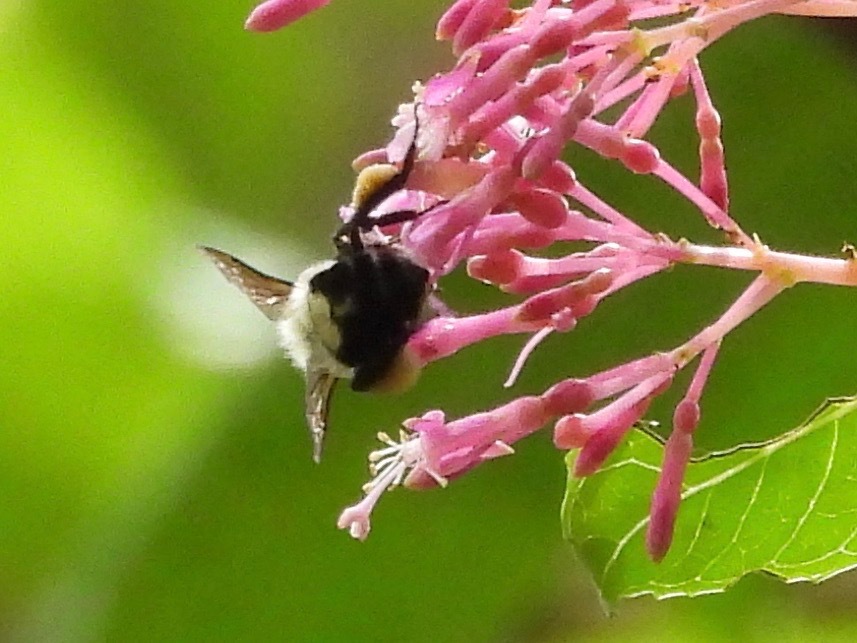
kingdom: Animalia
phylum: Arthropoda
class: Insecta
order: Hymenoptera
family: Apidae
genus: Bombus
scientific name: Bombus wilmattae
